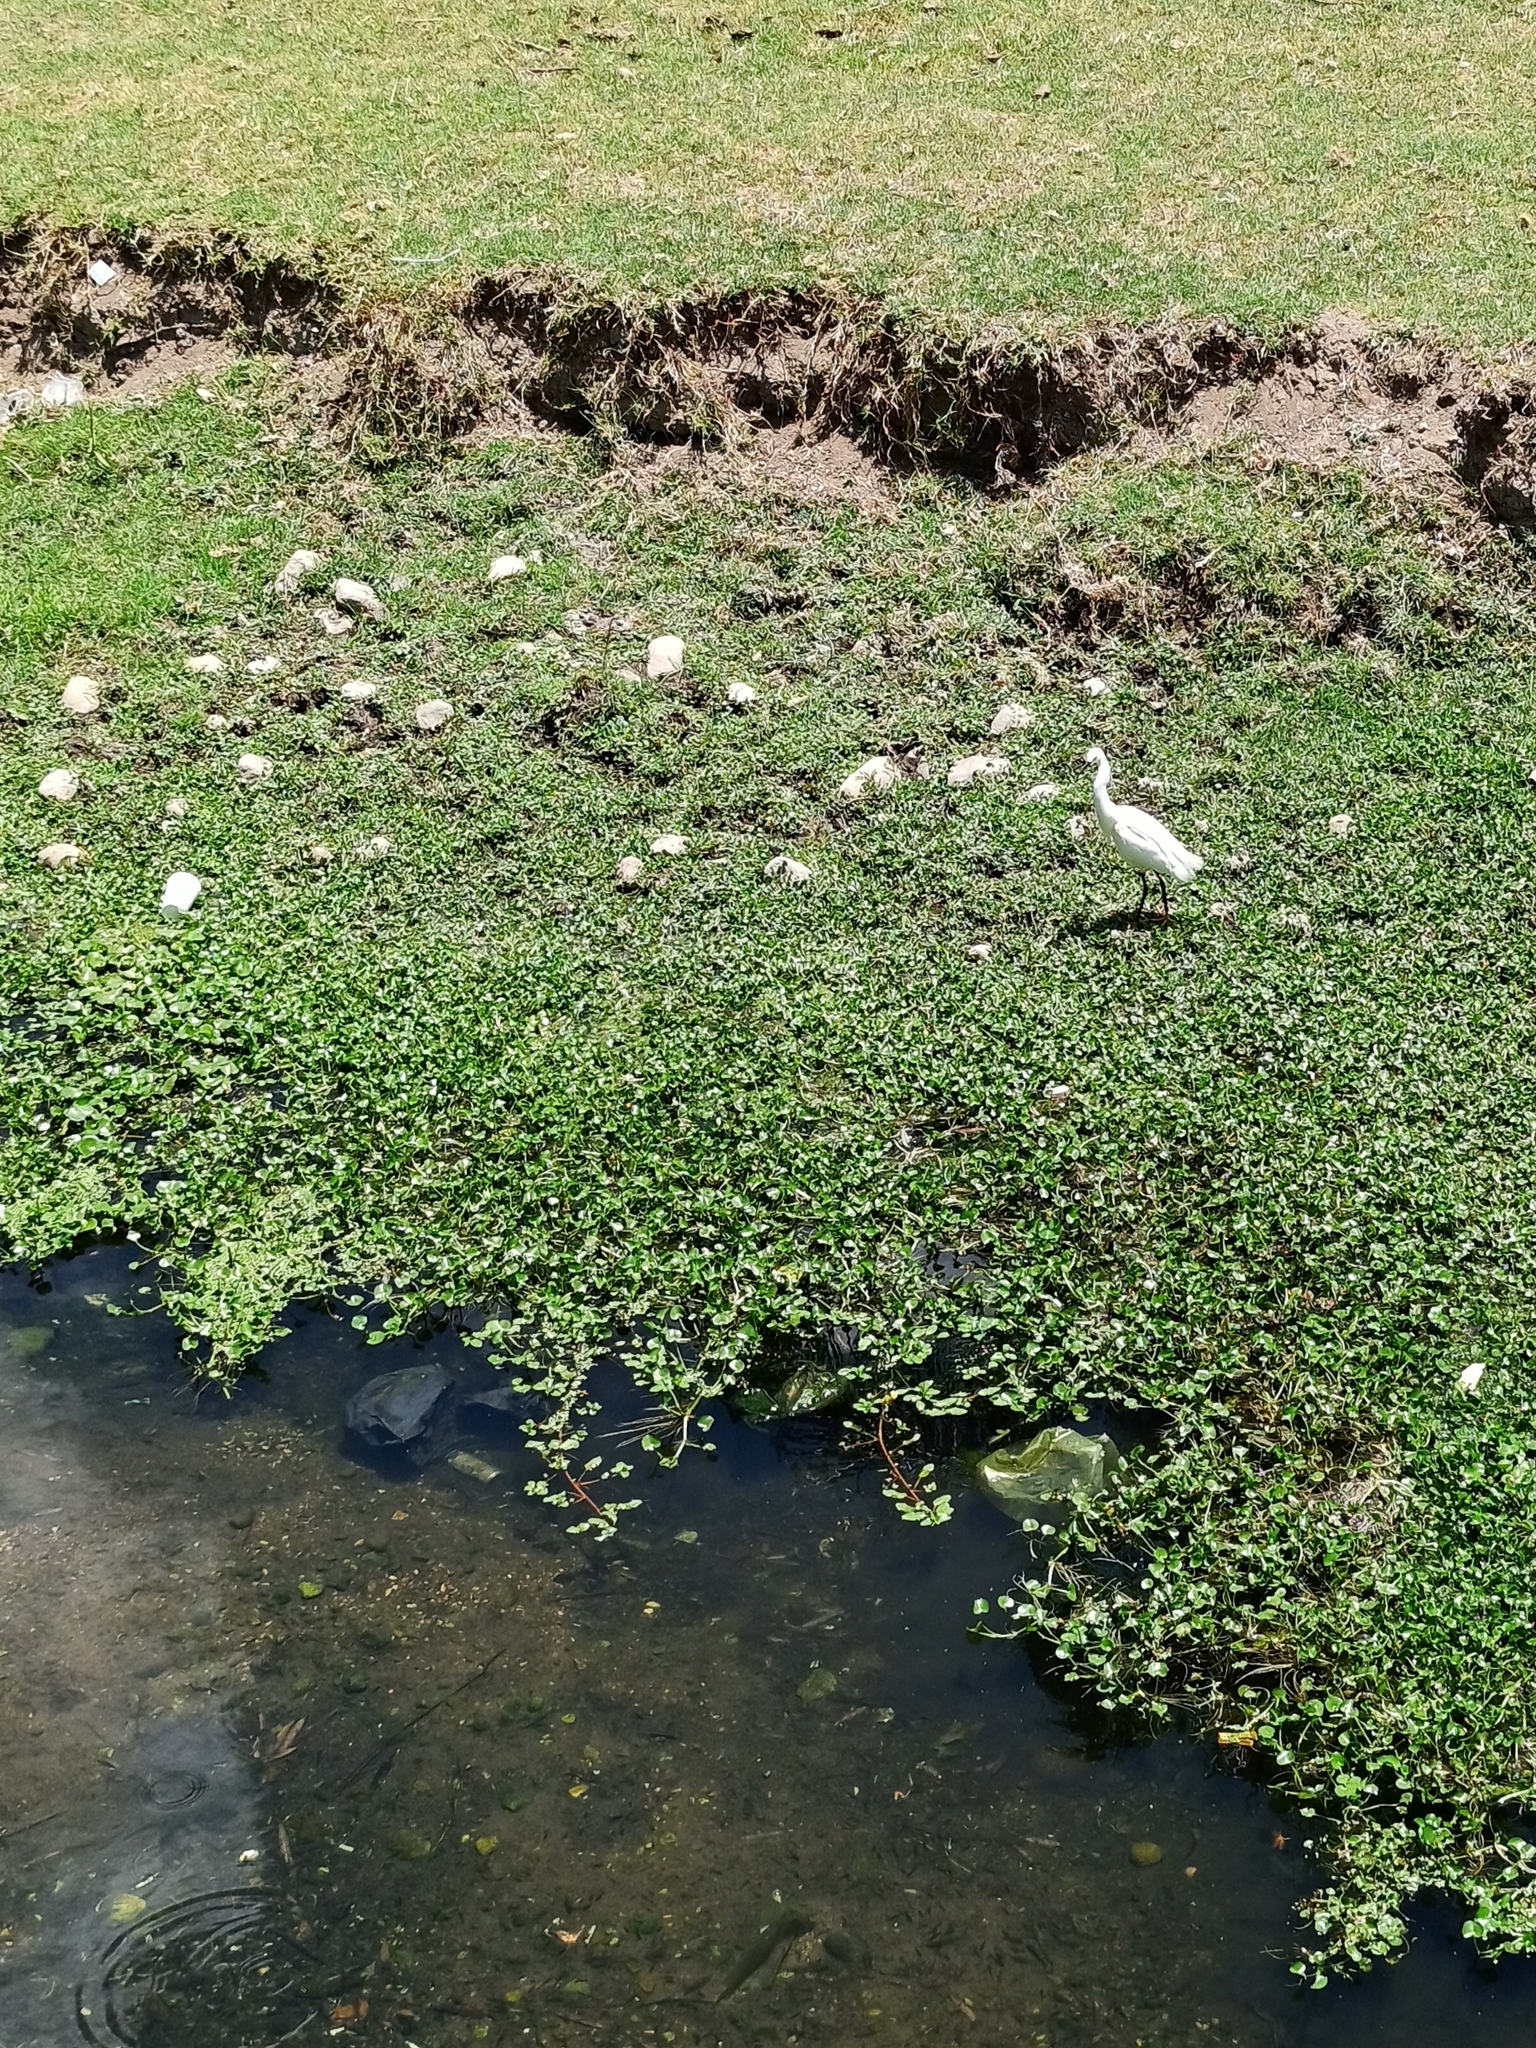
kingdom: Animalia
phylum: Chordata
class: Aves
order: Pelecaniformes
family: Ardeidae
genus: Egretta
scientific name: Egretta thula
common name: Snowy egret
